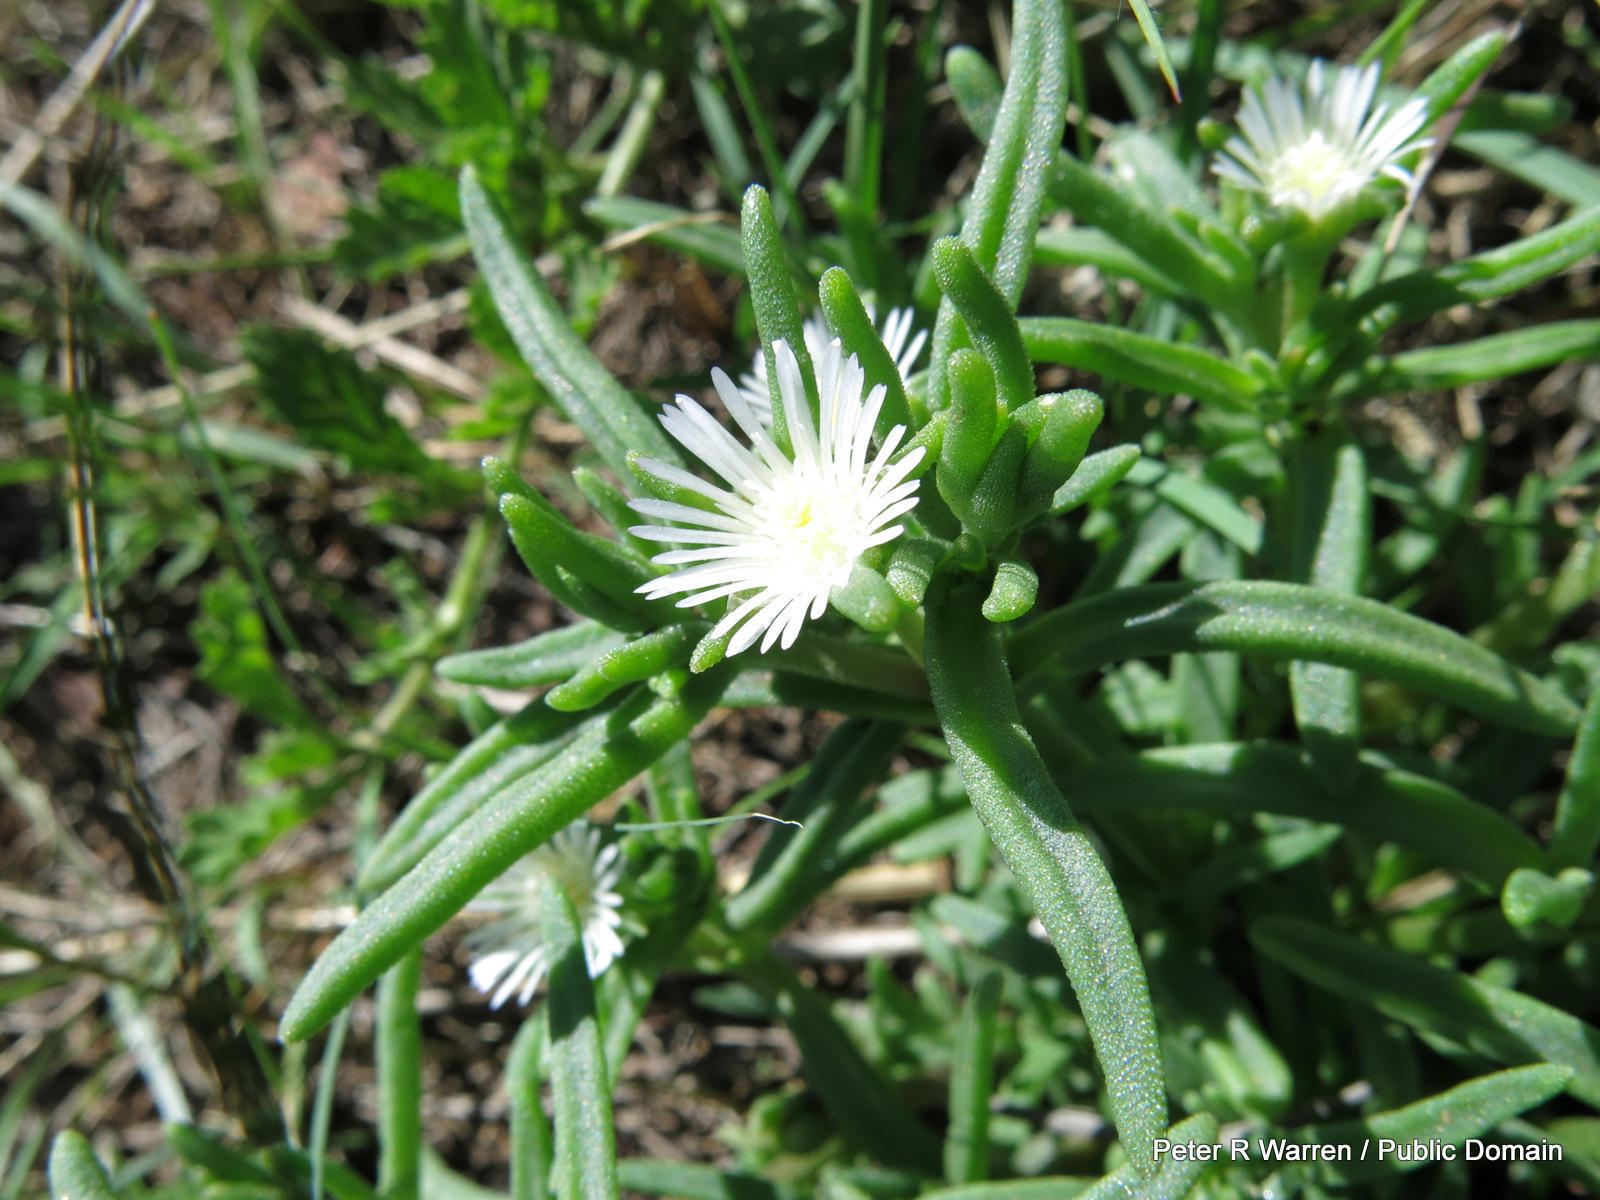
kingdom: Plantae
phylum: Tracheophyta
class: Magnoliopsida
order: Caryophyllales
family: Aizoaceae
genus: Delosperma
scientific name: Delosperma herbeum
